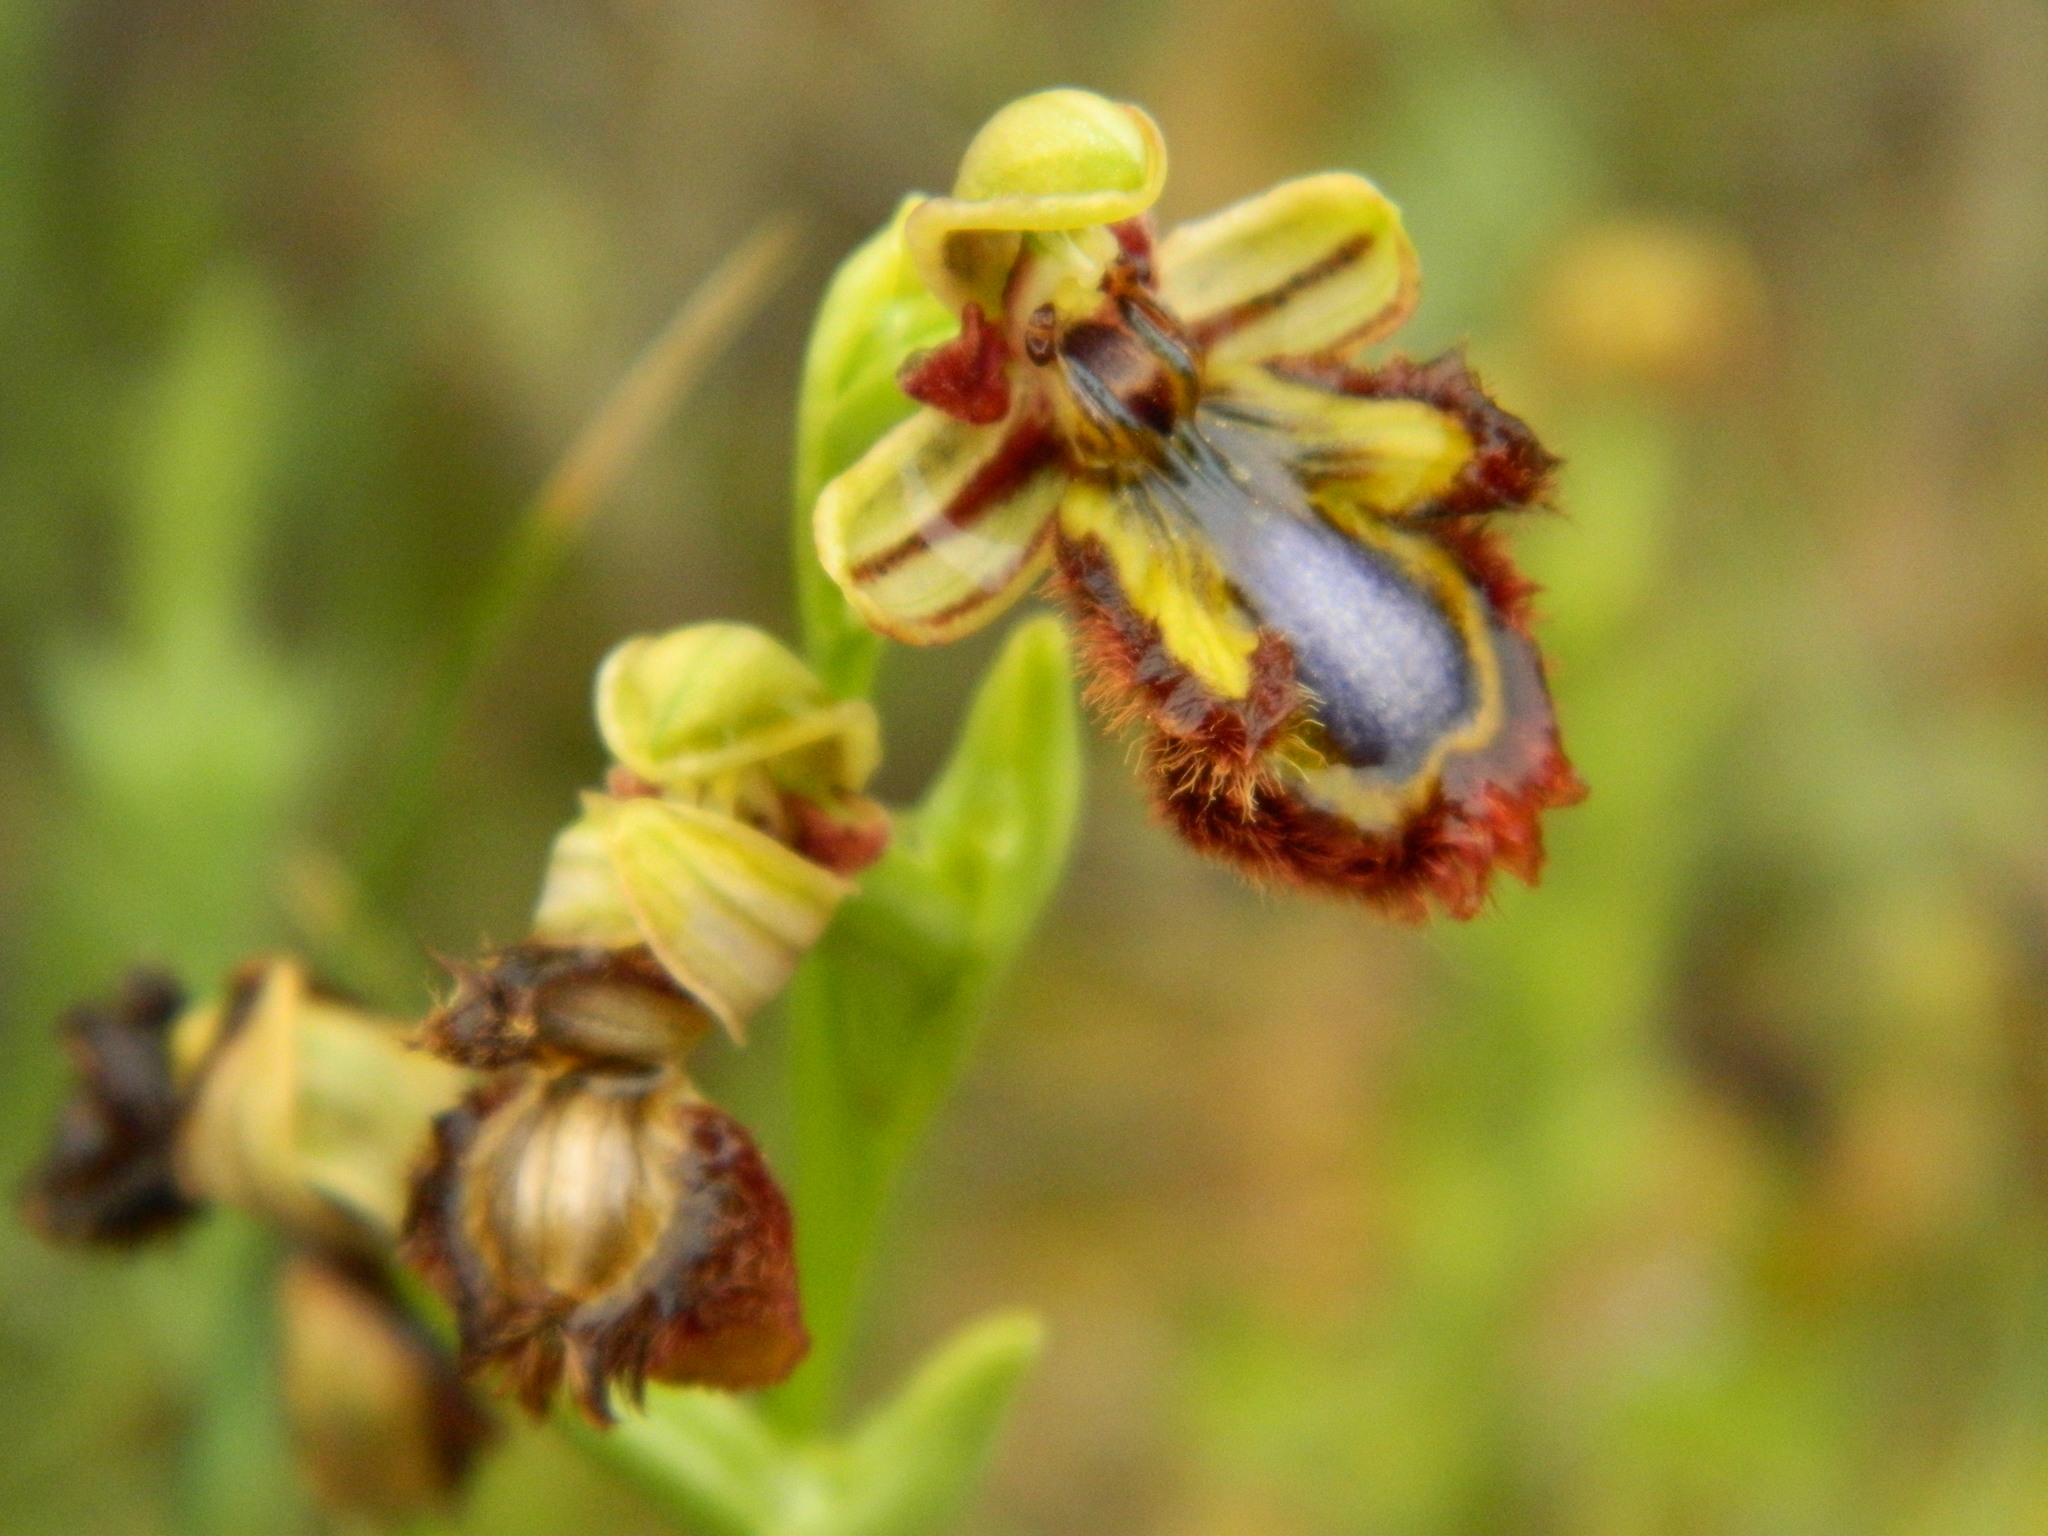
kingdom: Plantae
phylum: Tracheophyta
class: Liliopsida
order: Asparagales
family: Orchidaceae
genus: Ophrys
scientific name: Ophrys speculum
